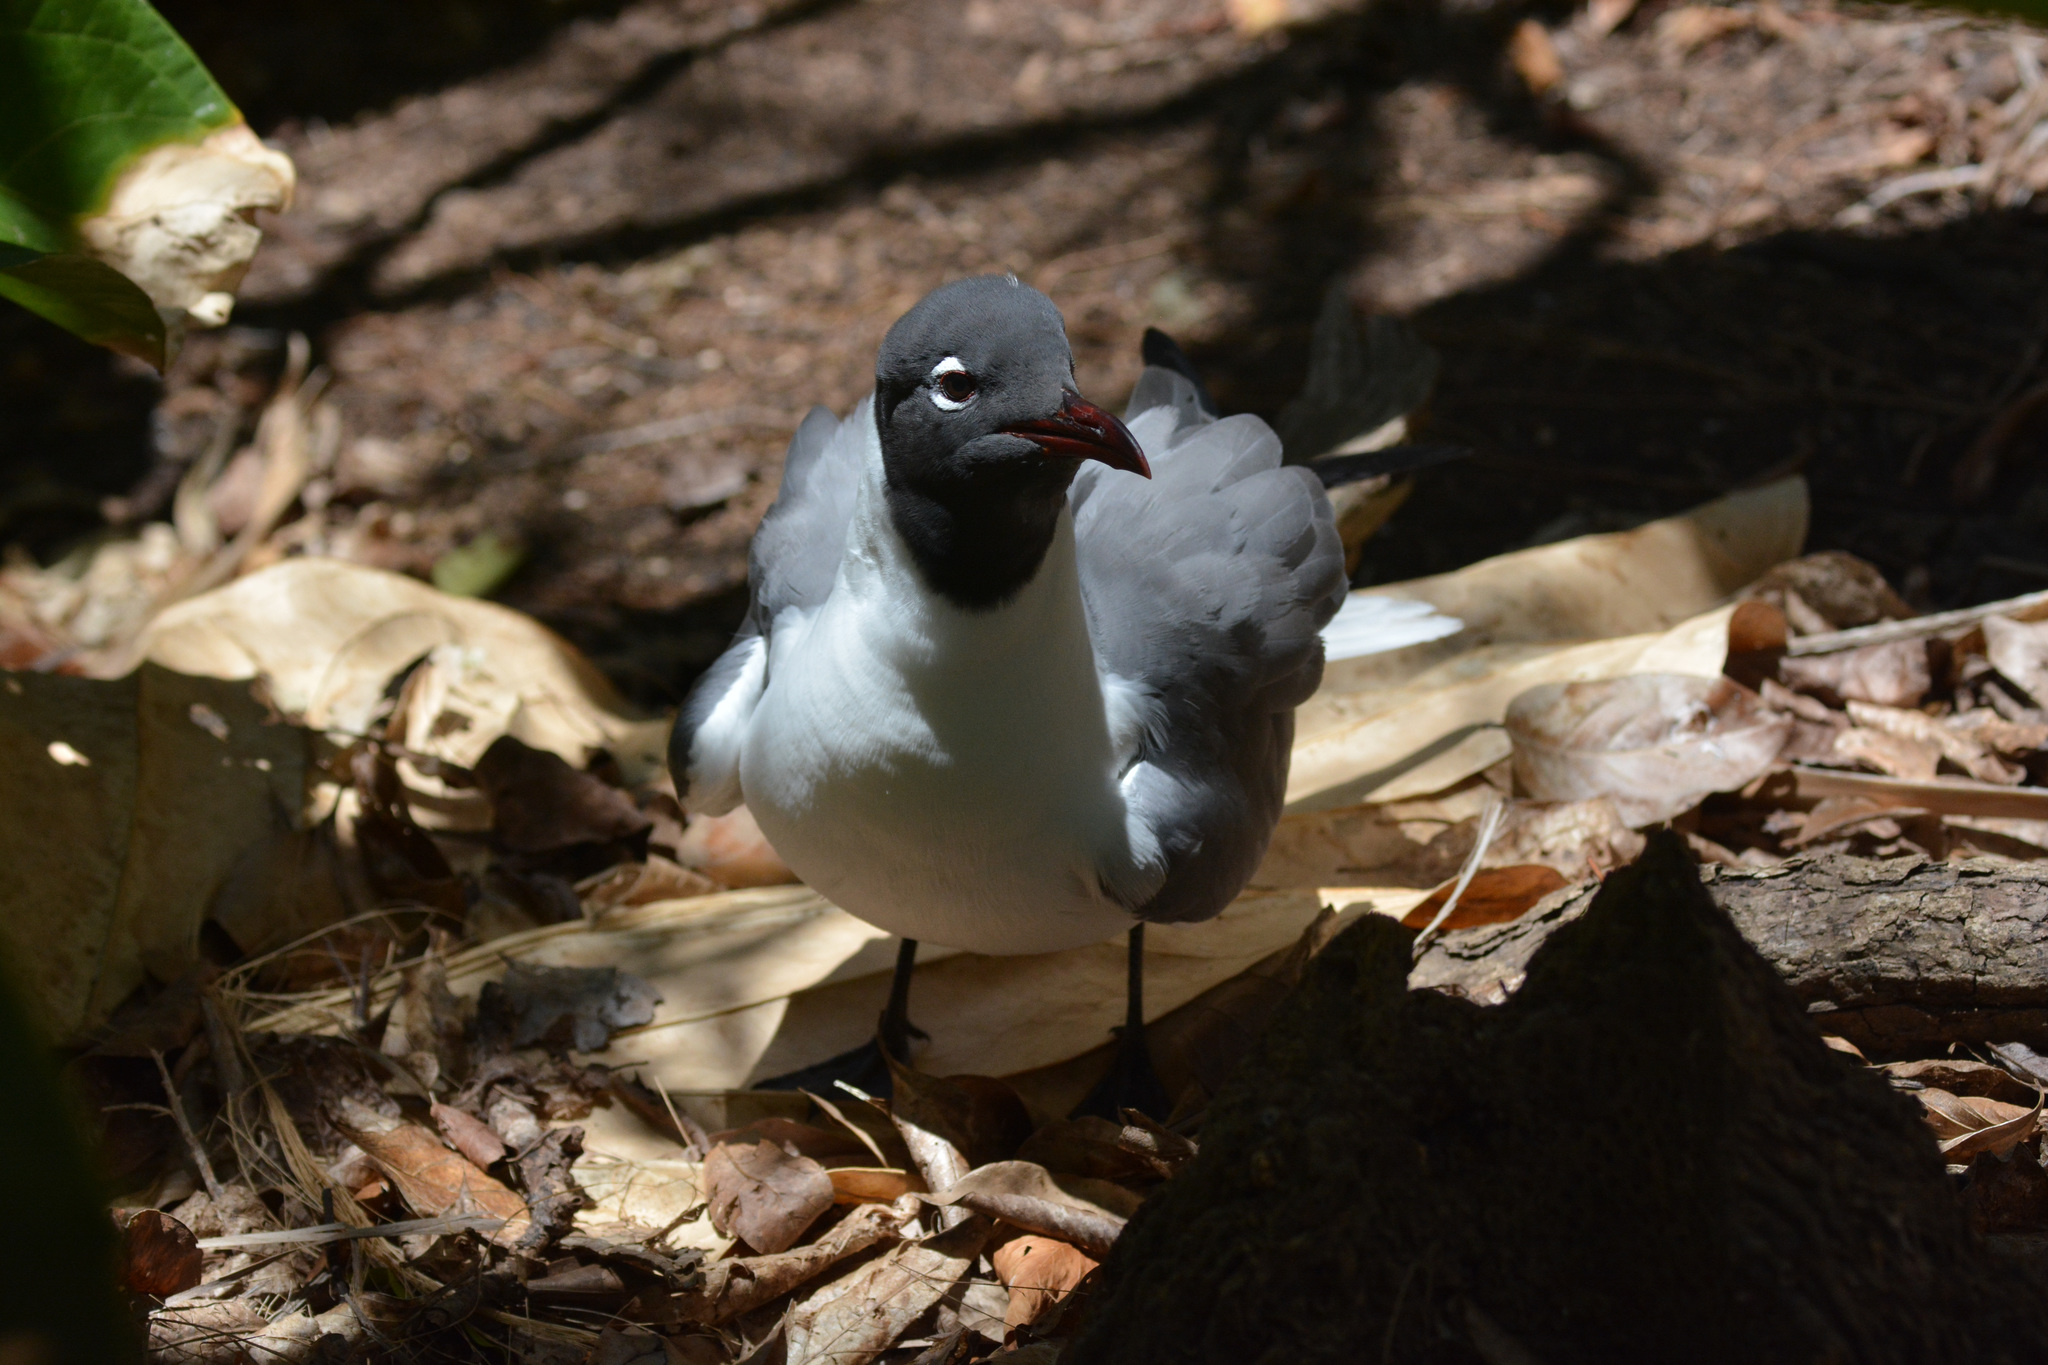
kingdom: Animalia
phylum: Chordata
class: Aves
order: Charadriiformes
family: Laridae
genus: Leucophaeus
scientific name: Leucophaeus atricilla
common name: Laughing gull
